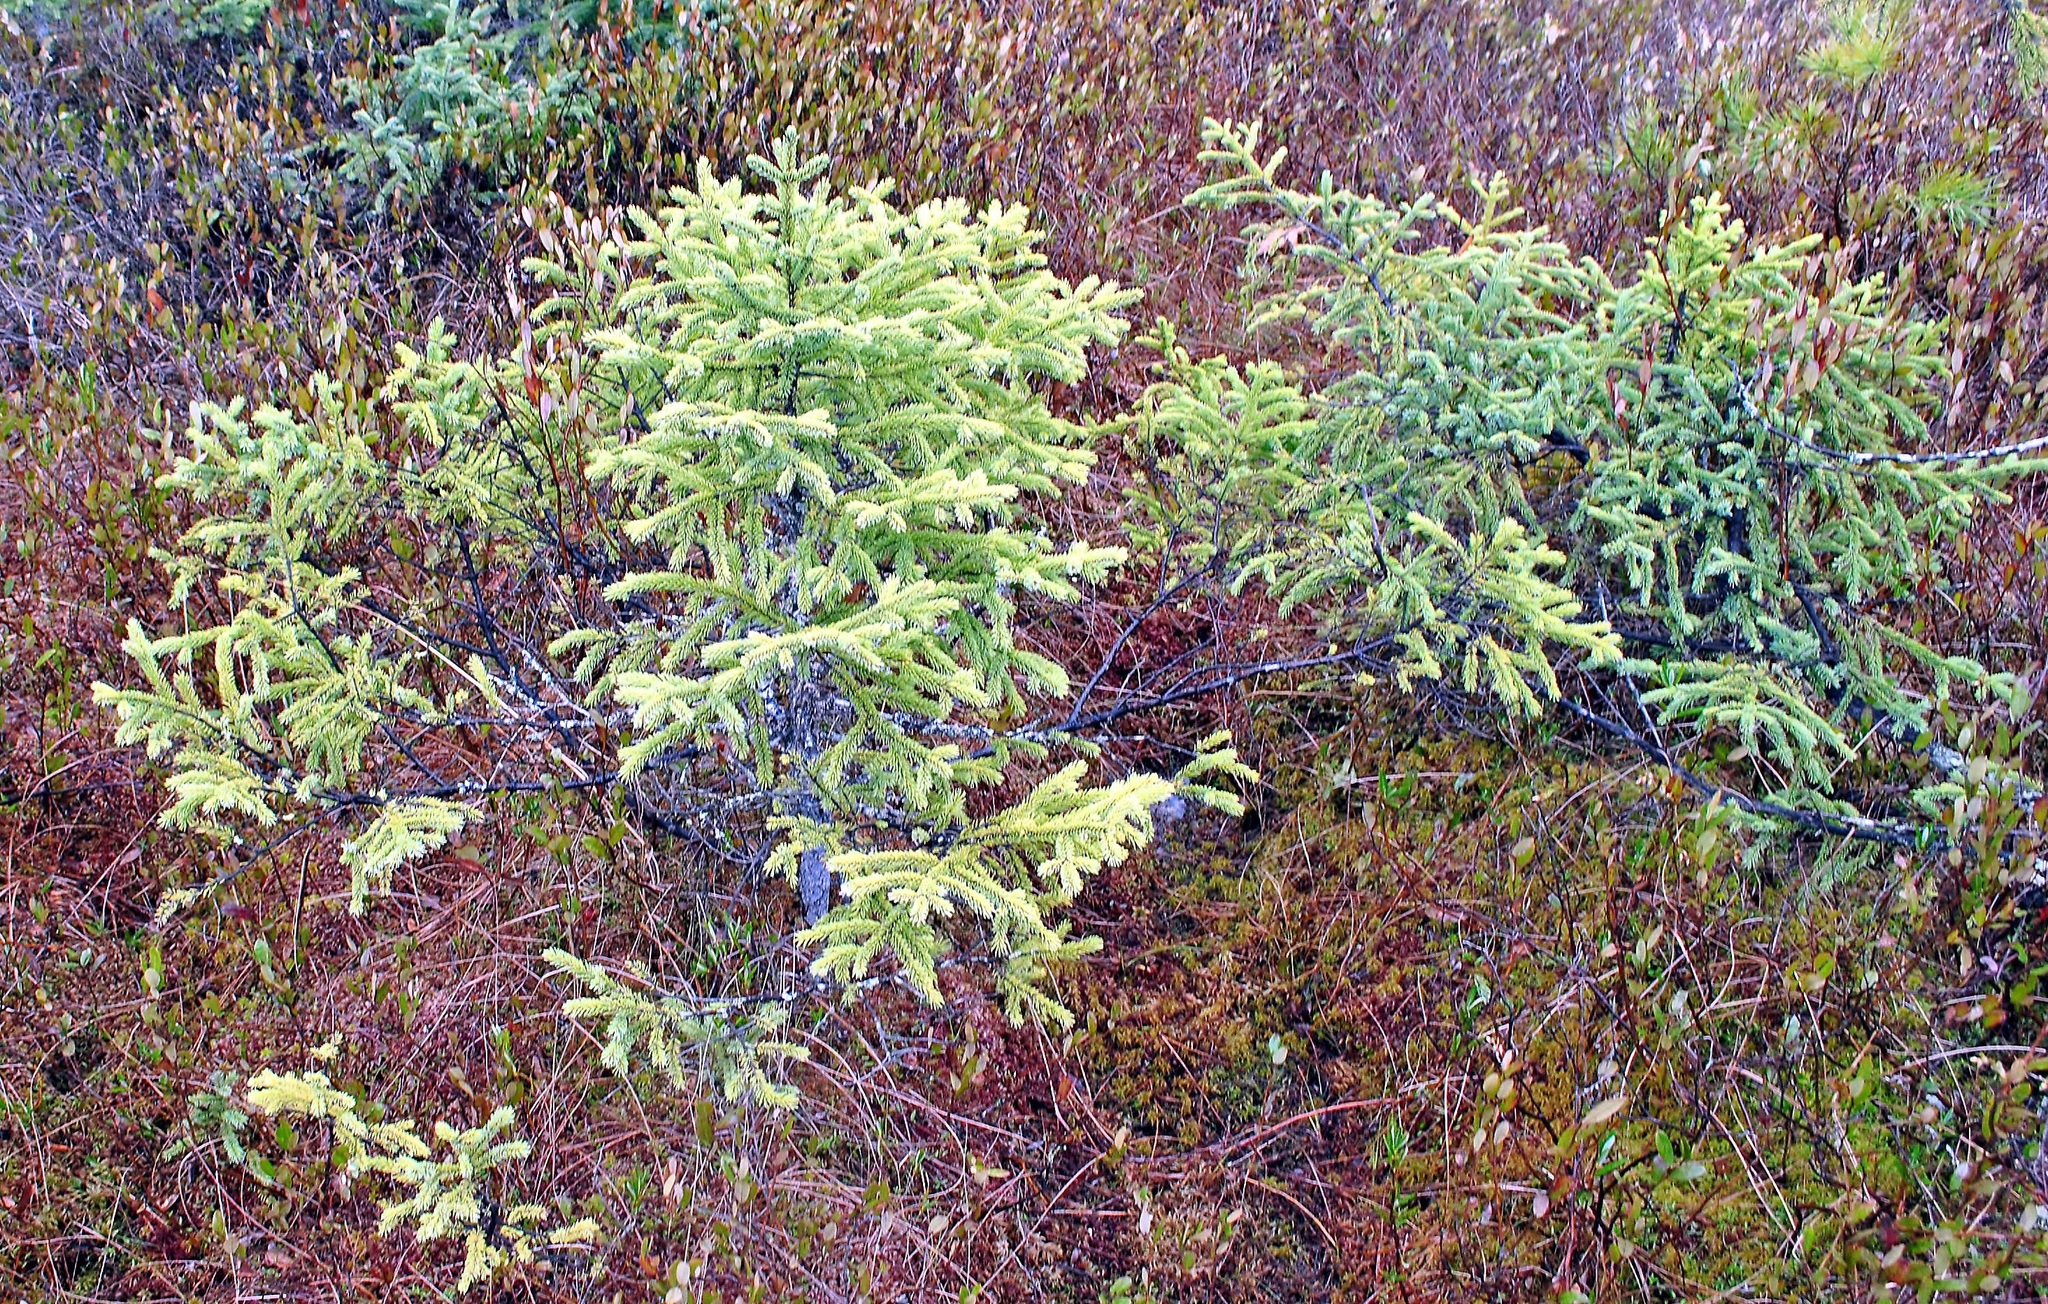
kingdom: Plantae
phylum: Tracheophyta
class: Pinopsida
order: Pinales
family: Pinaceae
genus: Picea
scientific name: Picea mariana
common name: Black spruce
